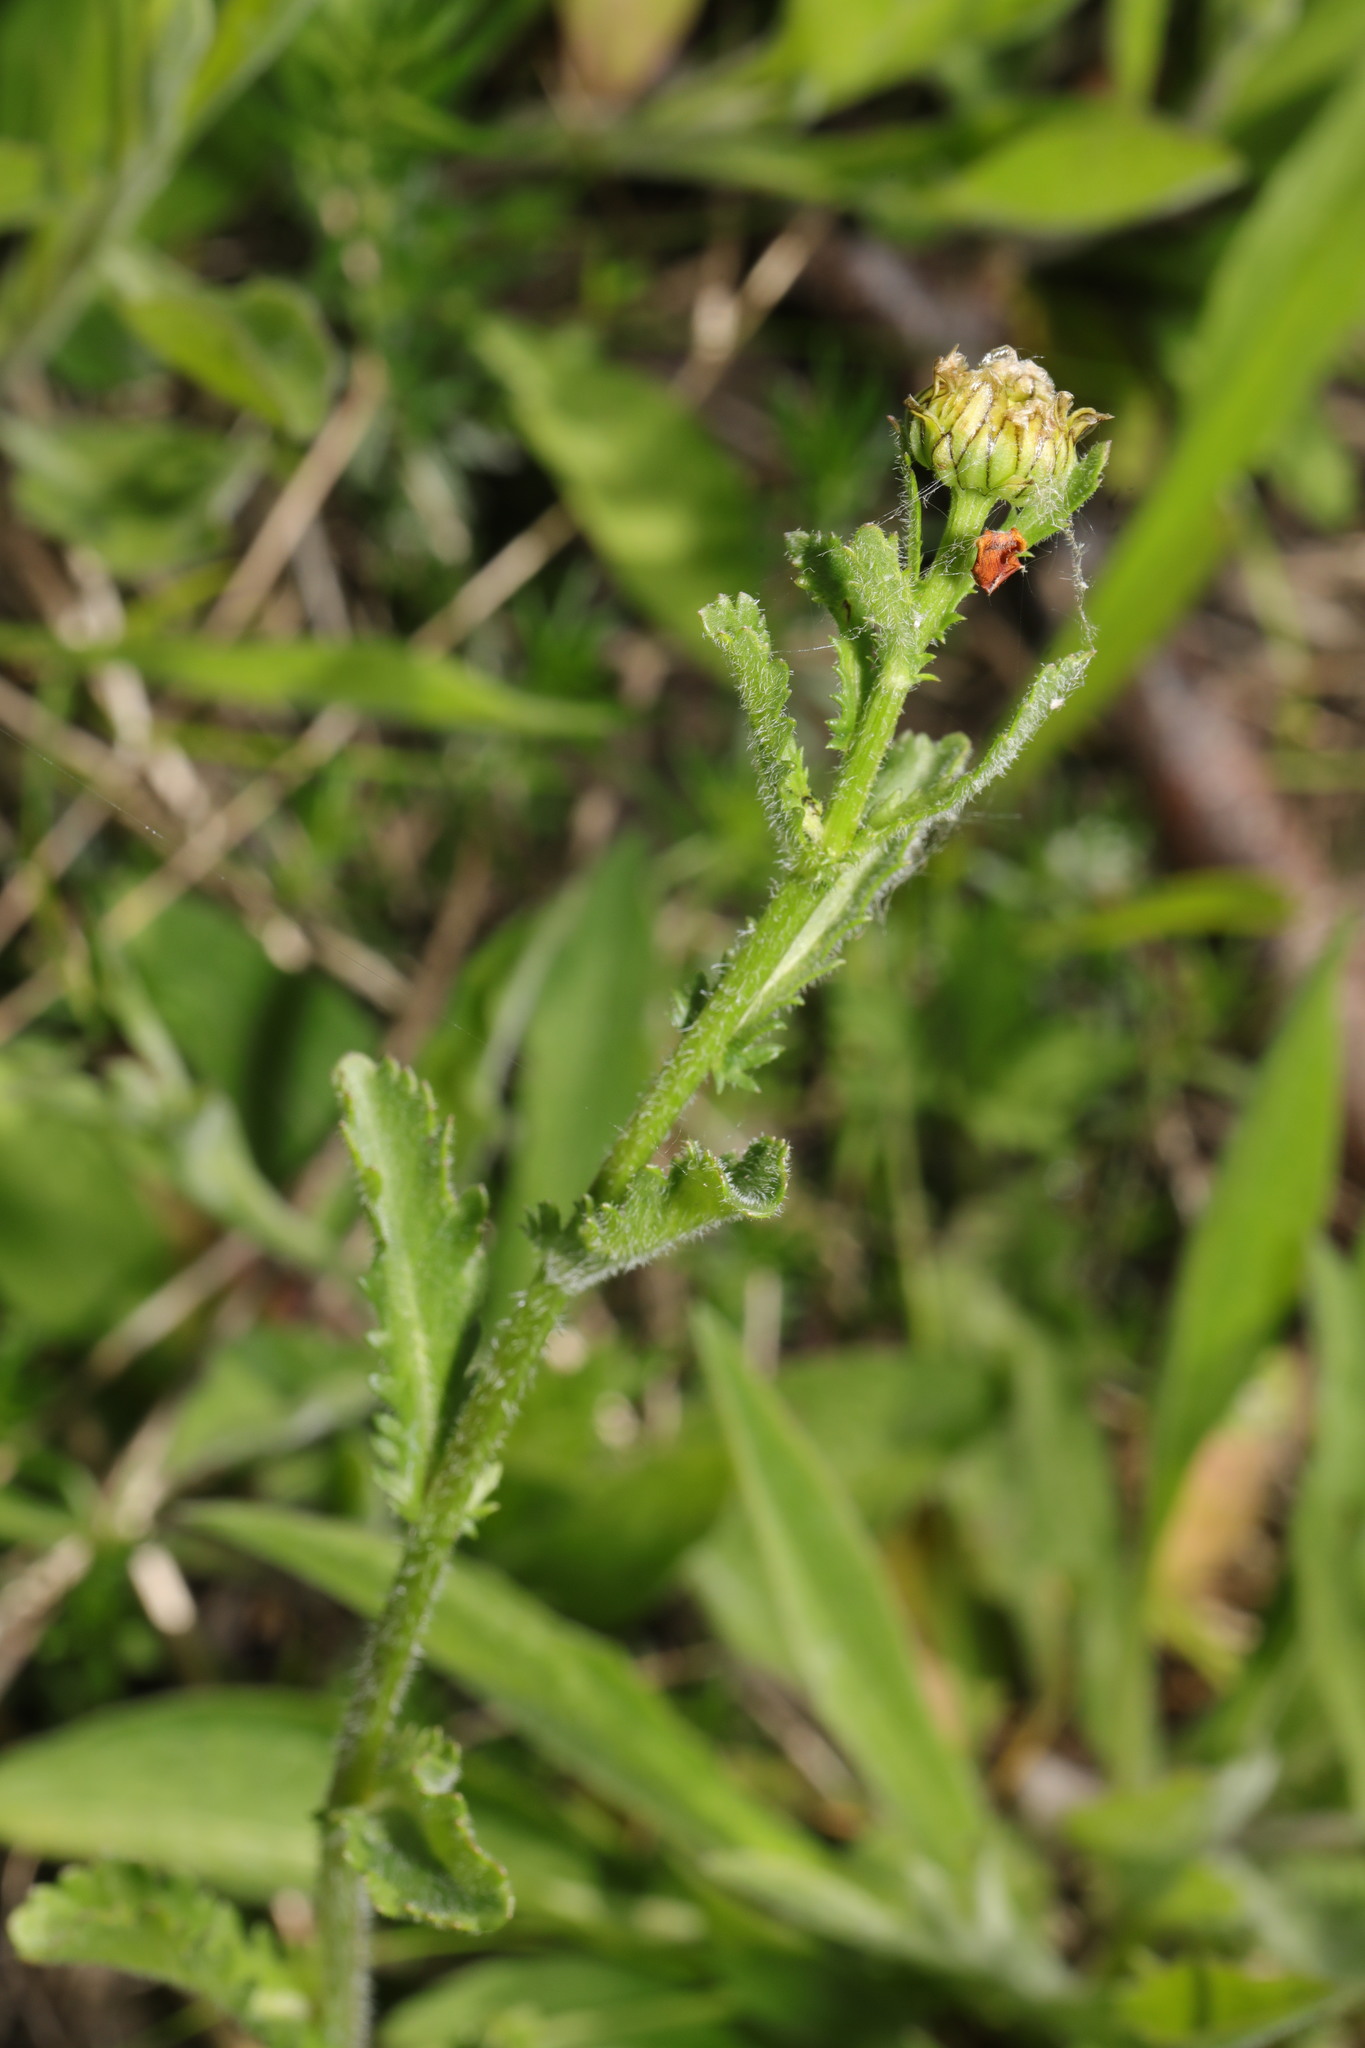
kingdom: Plantae
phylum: Tracheophyta
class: Magnoliopsida
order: Asterales
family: Asteraceae
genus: Leucanthemum
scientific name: Leucanthemum vulgare
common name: Oxeye daisy
